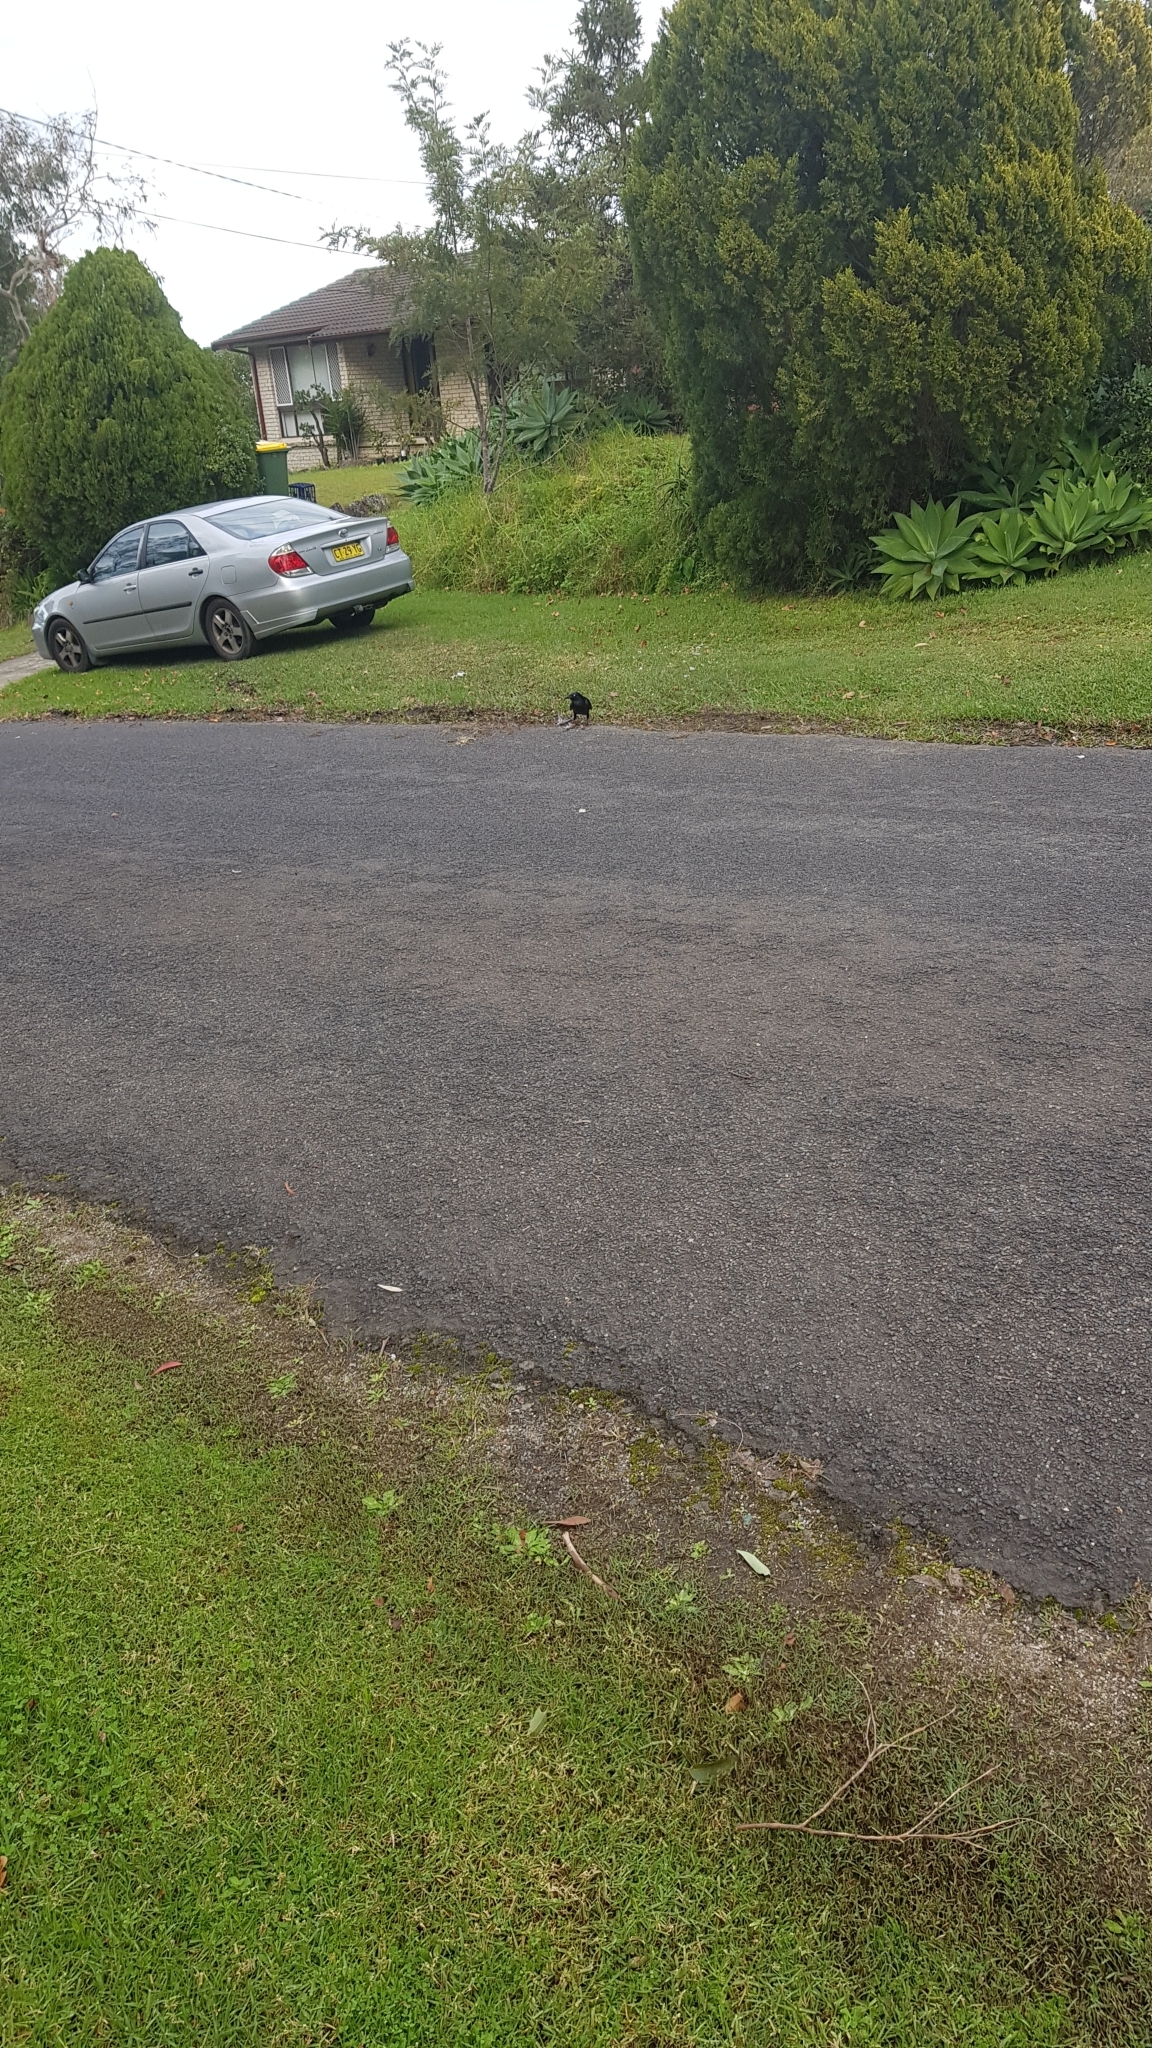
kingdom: Animalia
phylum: Chordata
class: Aves
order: Passeriformes
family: Corvidae
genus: Corvus
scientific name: Corvus coronoides
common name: Australian raven
